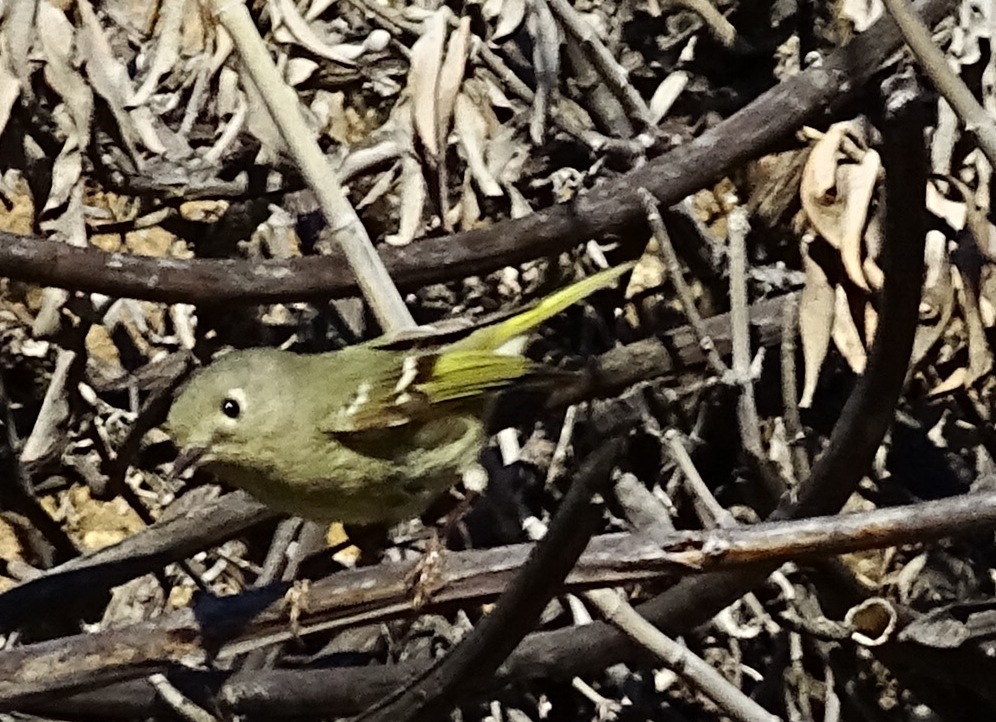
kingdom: Animalia
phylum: Chordata
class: Aves
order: Passeriformes
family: Regulidae
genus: Regulus
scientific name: Regulus calendula
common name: Ruby-crowned kinglet
